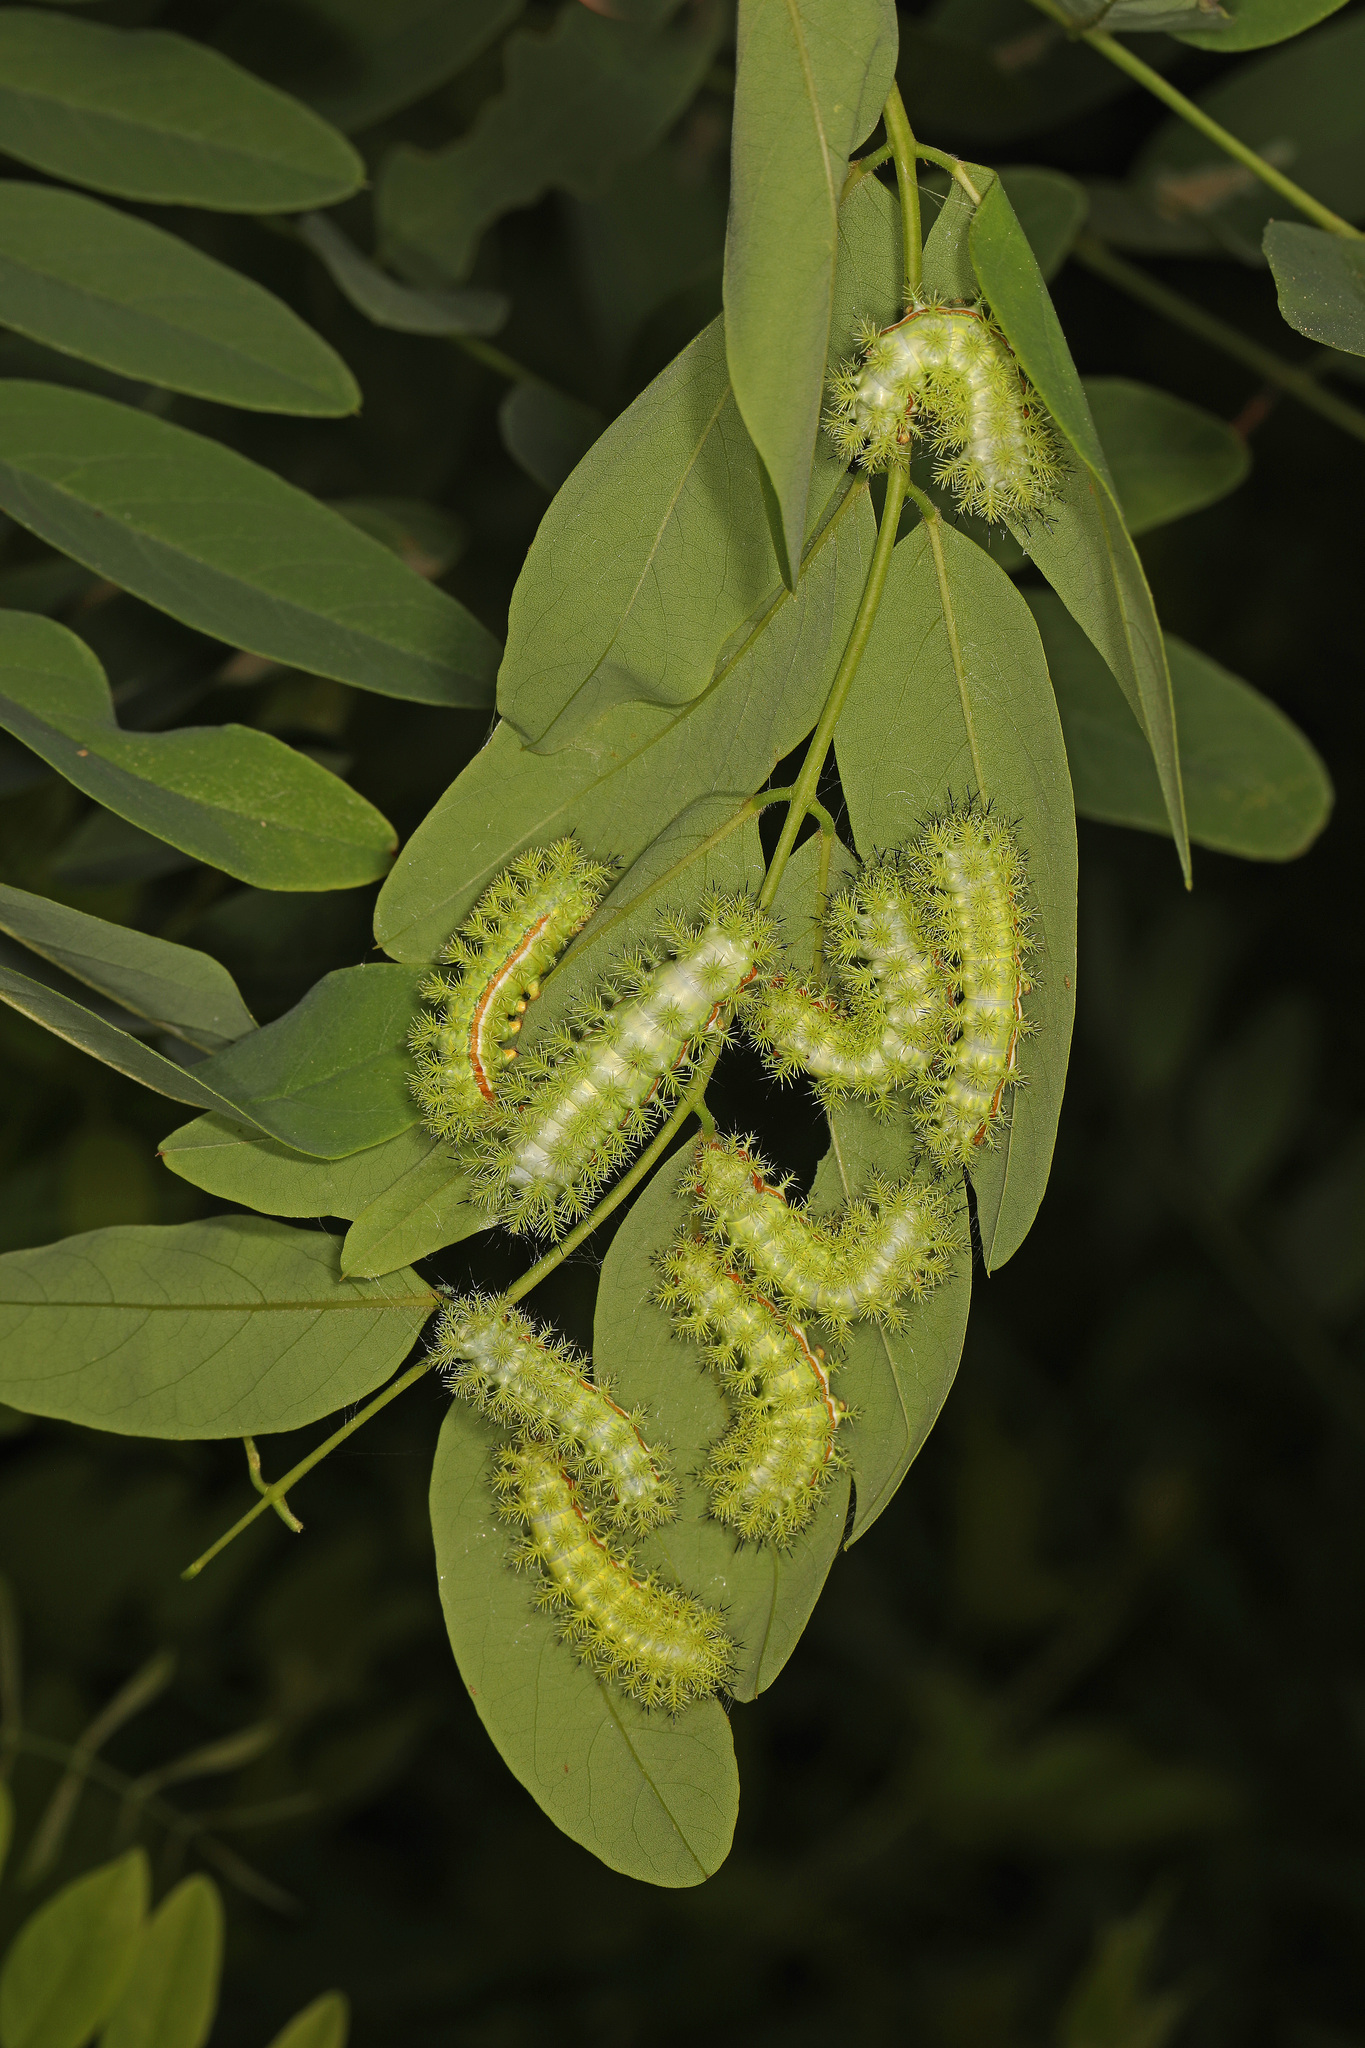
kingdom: Animalia
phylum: Arthropoda
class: Insecta
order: Lepidoptera
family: Saturniidae
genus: Automeris
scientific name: Automeris io
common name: Io moth
